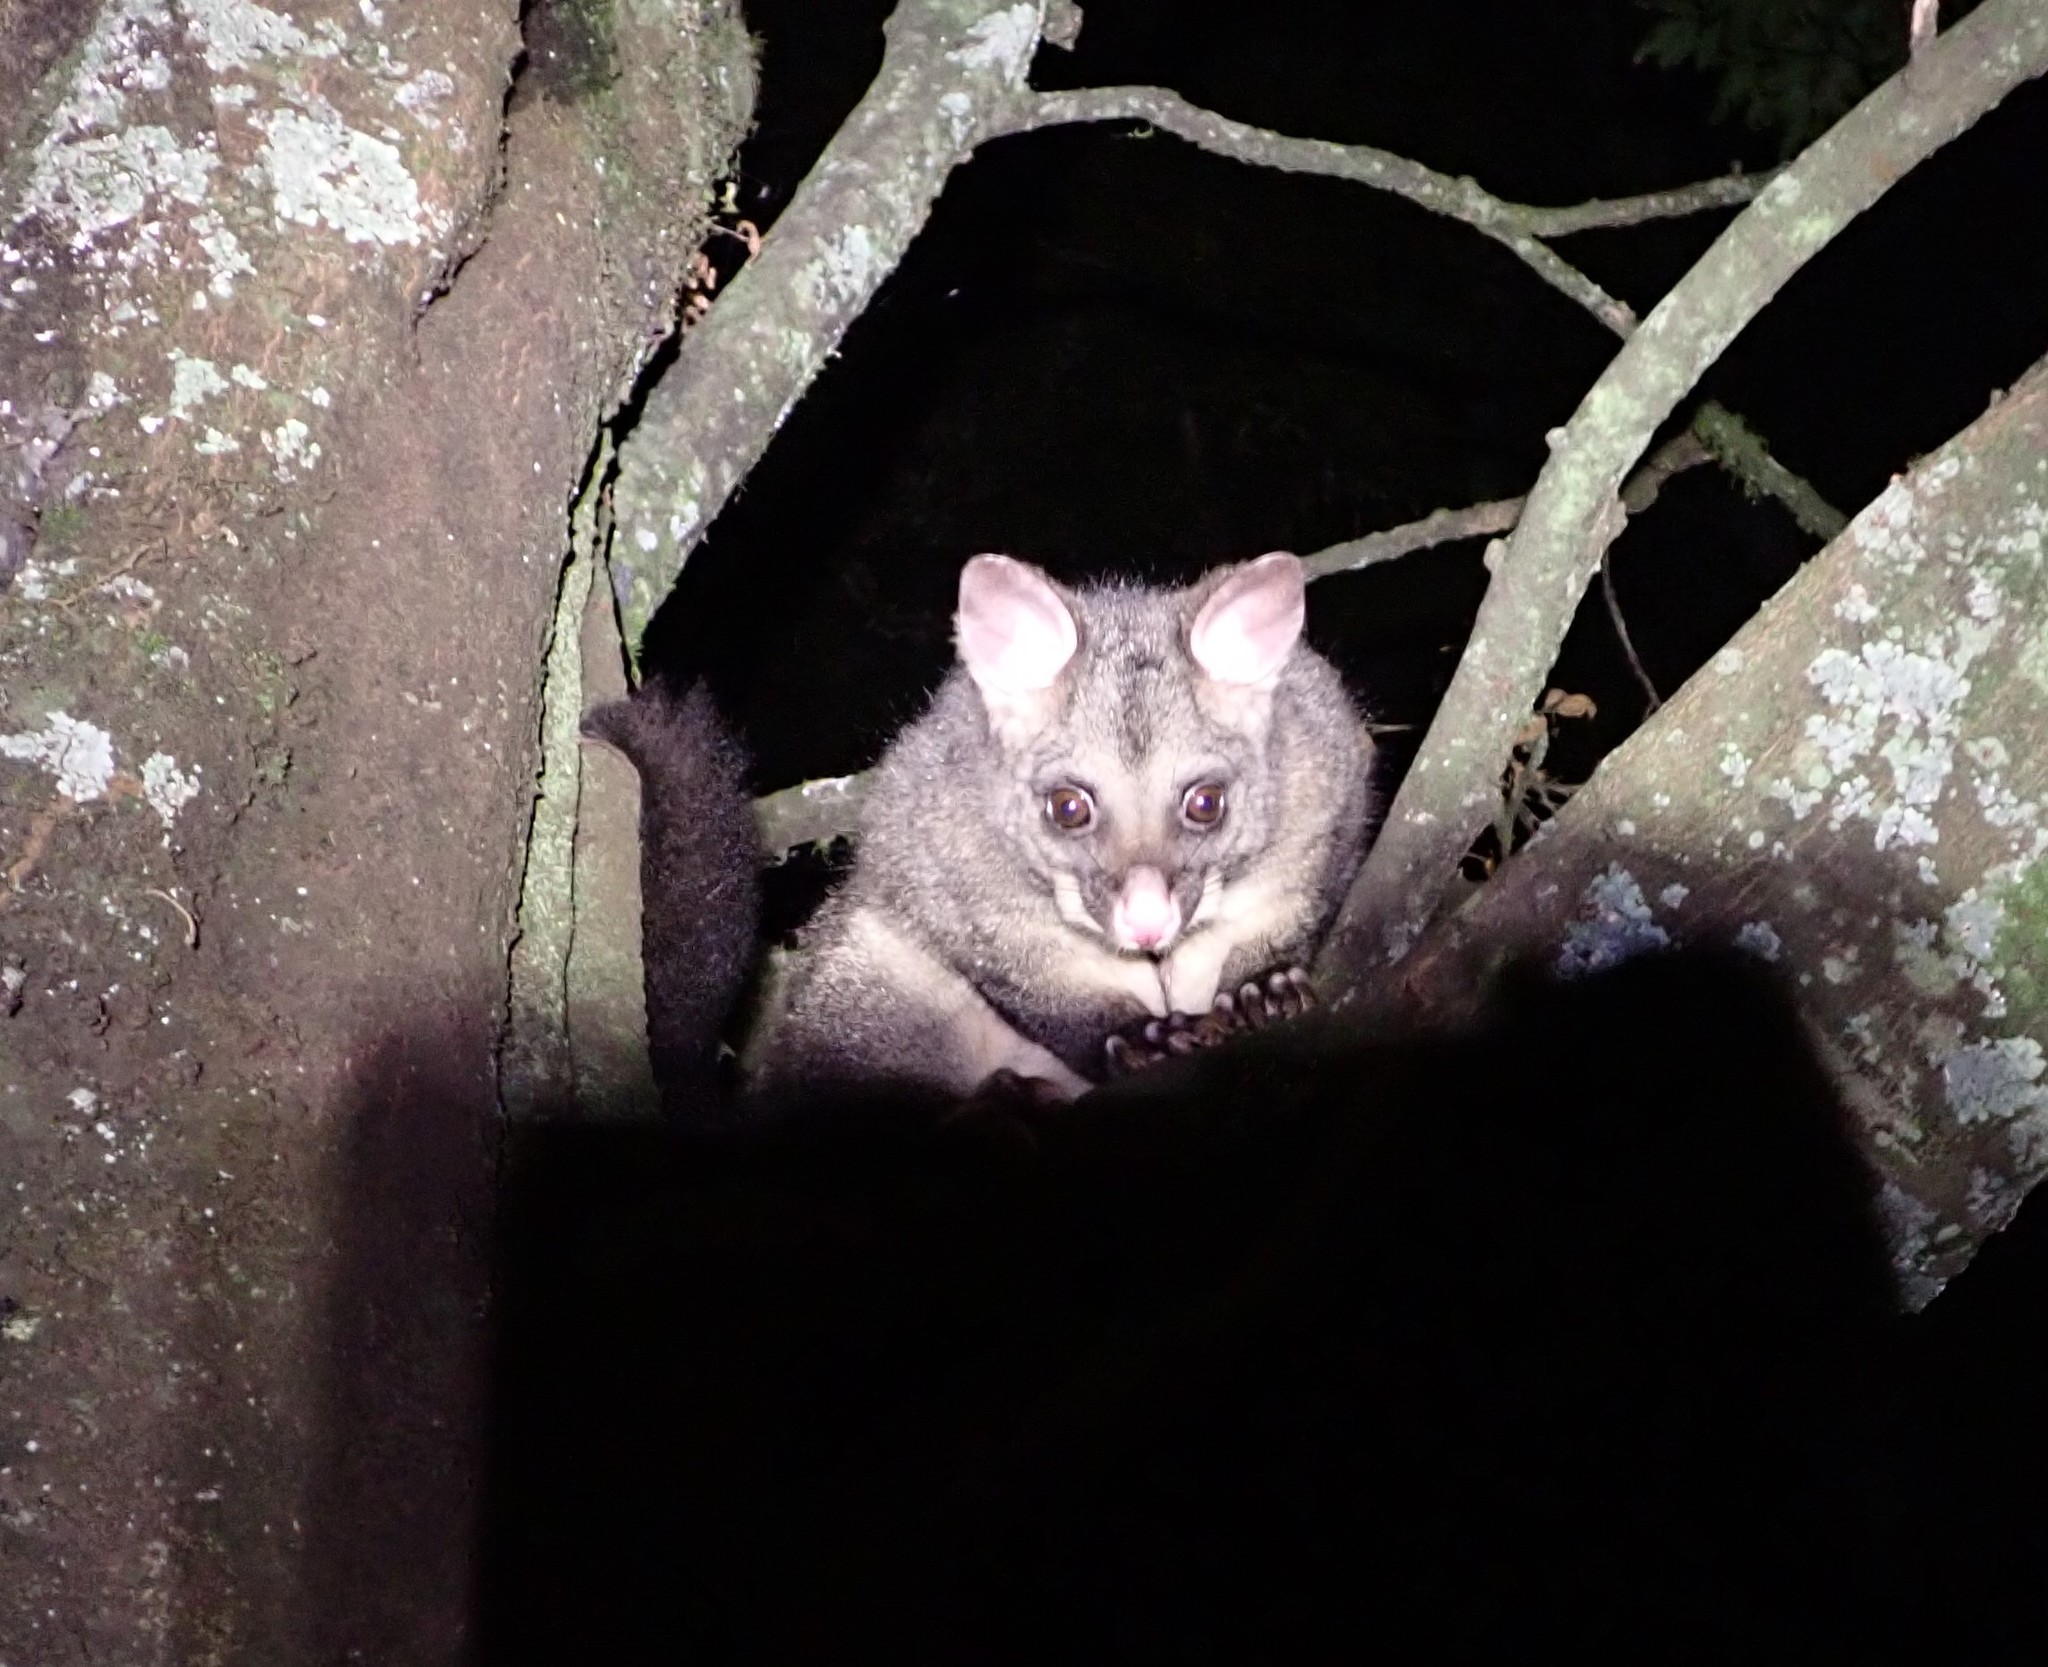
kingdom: Animalia
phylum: Chordata
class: Mammalia
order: Diprotodontia
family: Phalangeridae
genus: Trichosurus
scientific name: Trichosurus vulpecula
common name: Common brushtail
